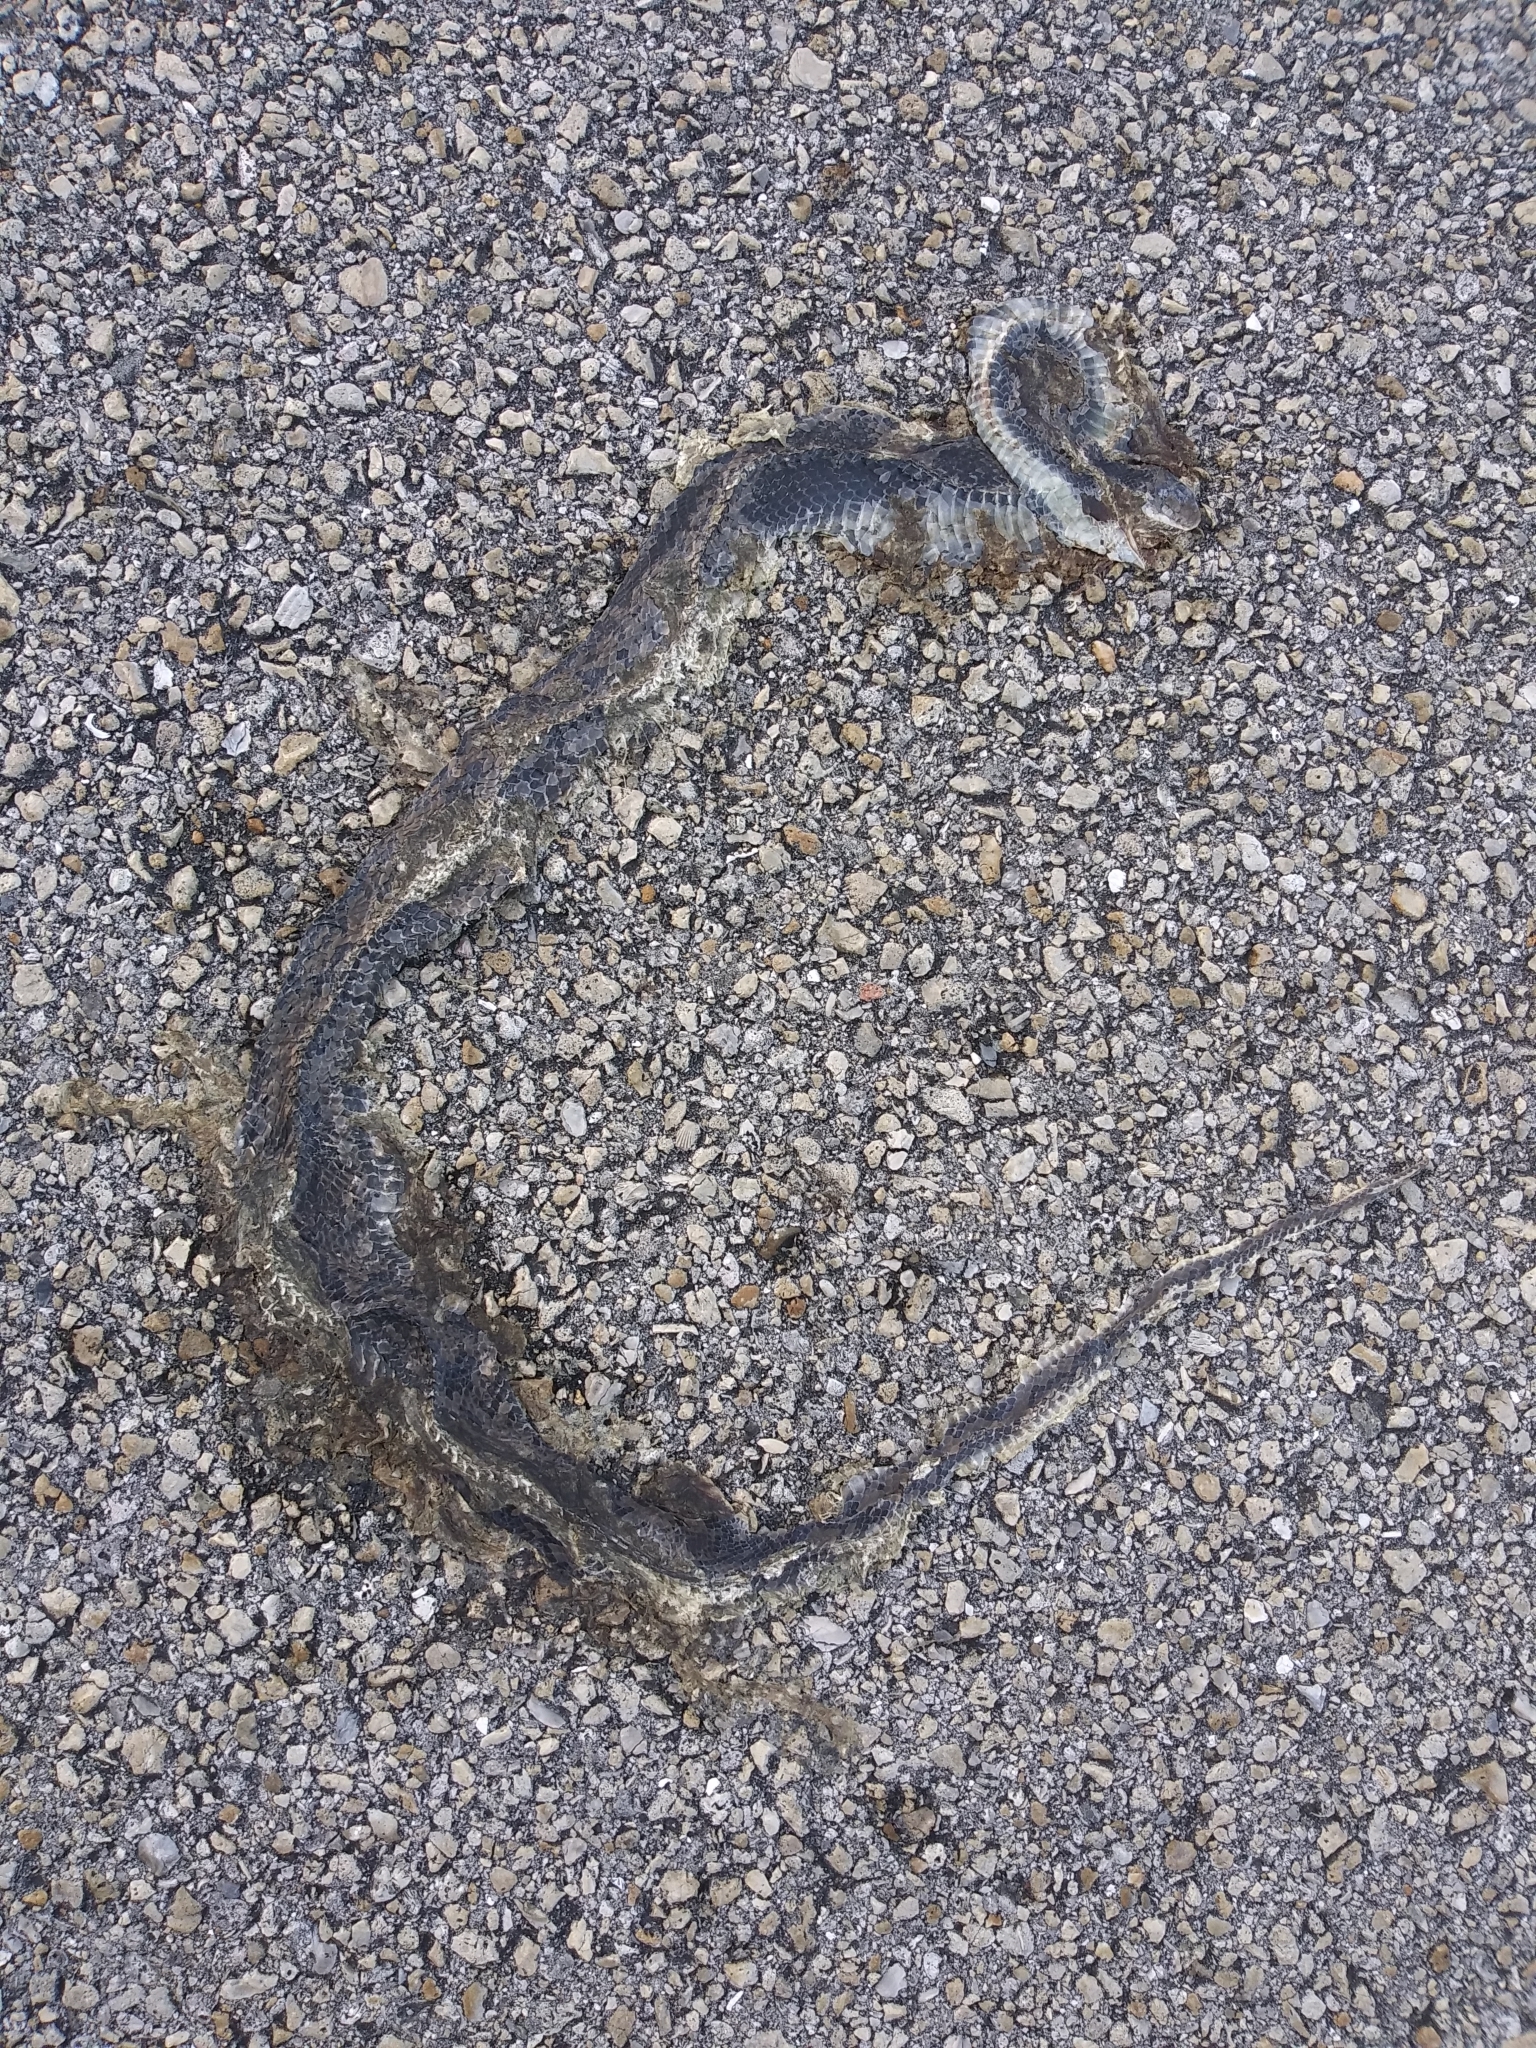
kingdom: Animalia
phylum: Chordata
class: Squamata
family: Colubridae
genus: Coluber
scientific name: Coluber constrictor
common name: Eastern racer
